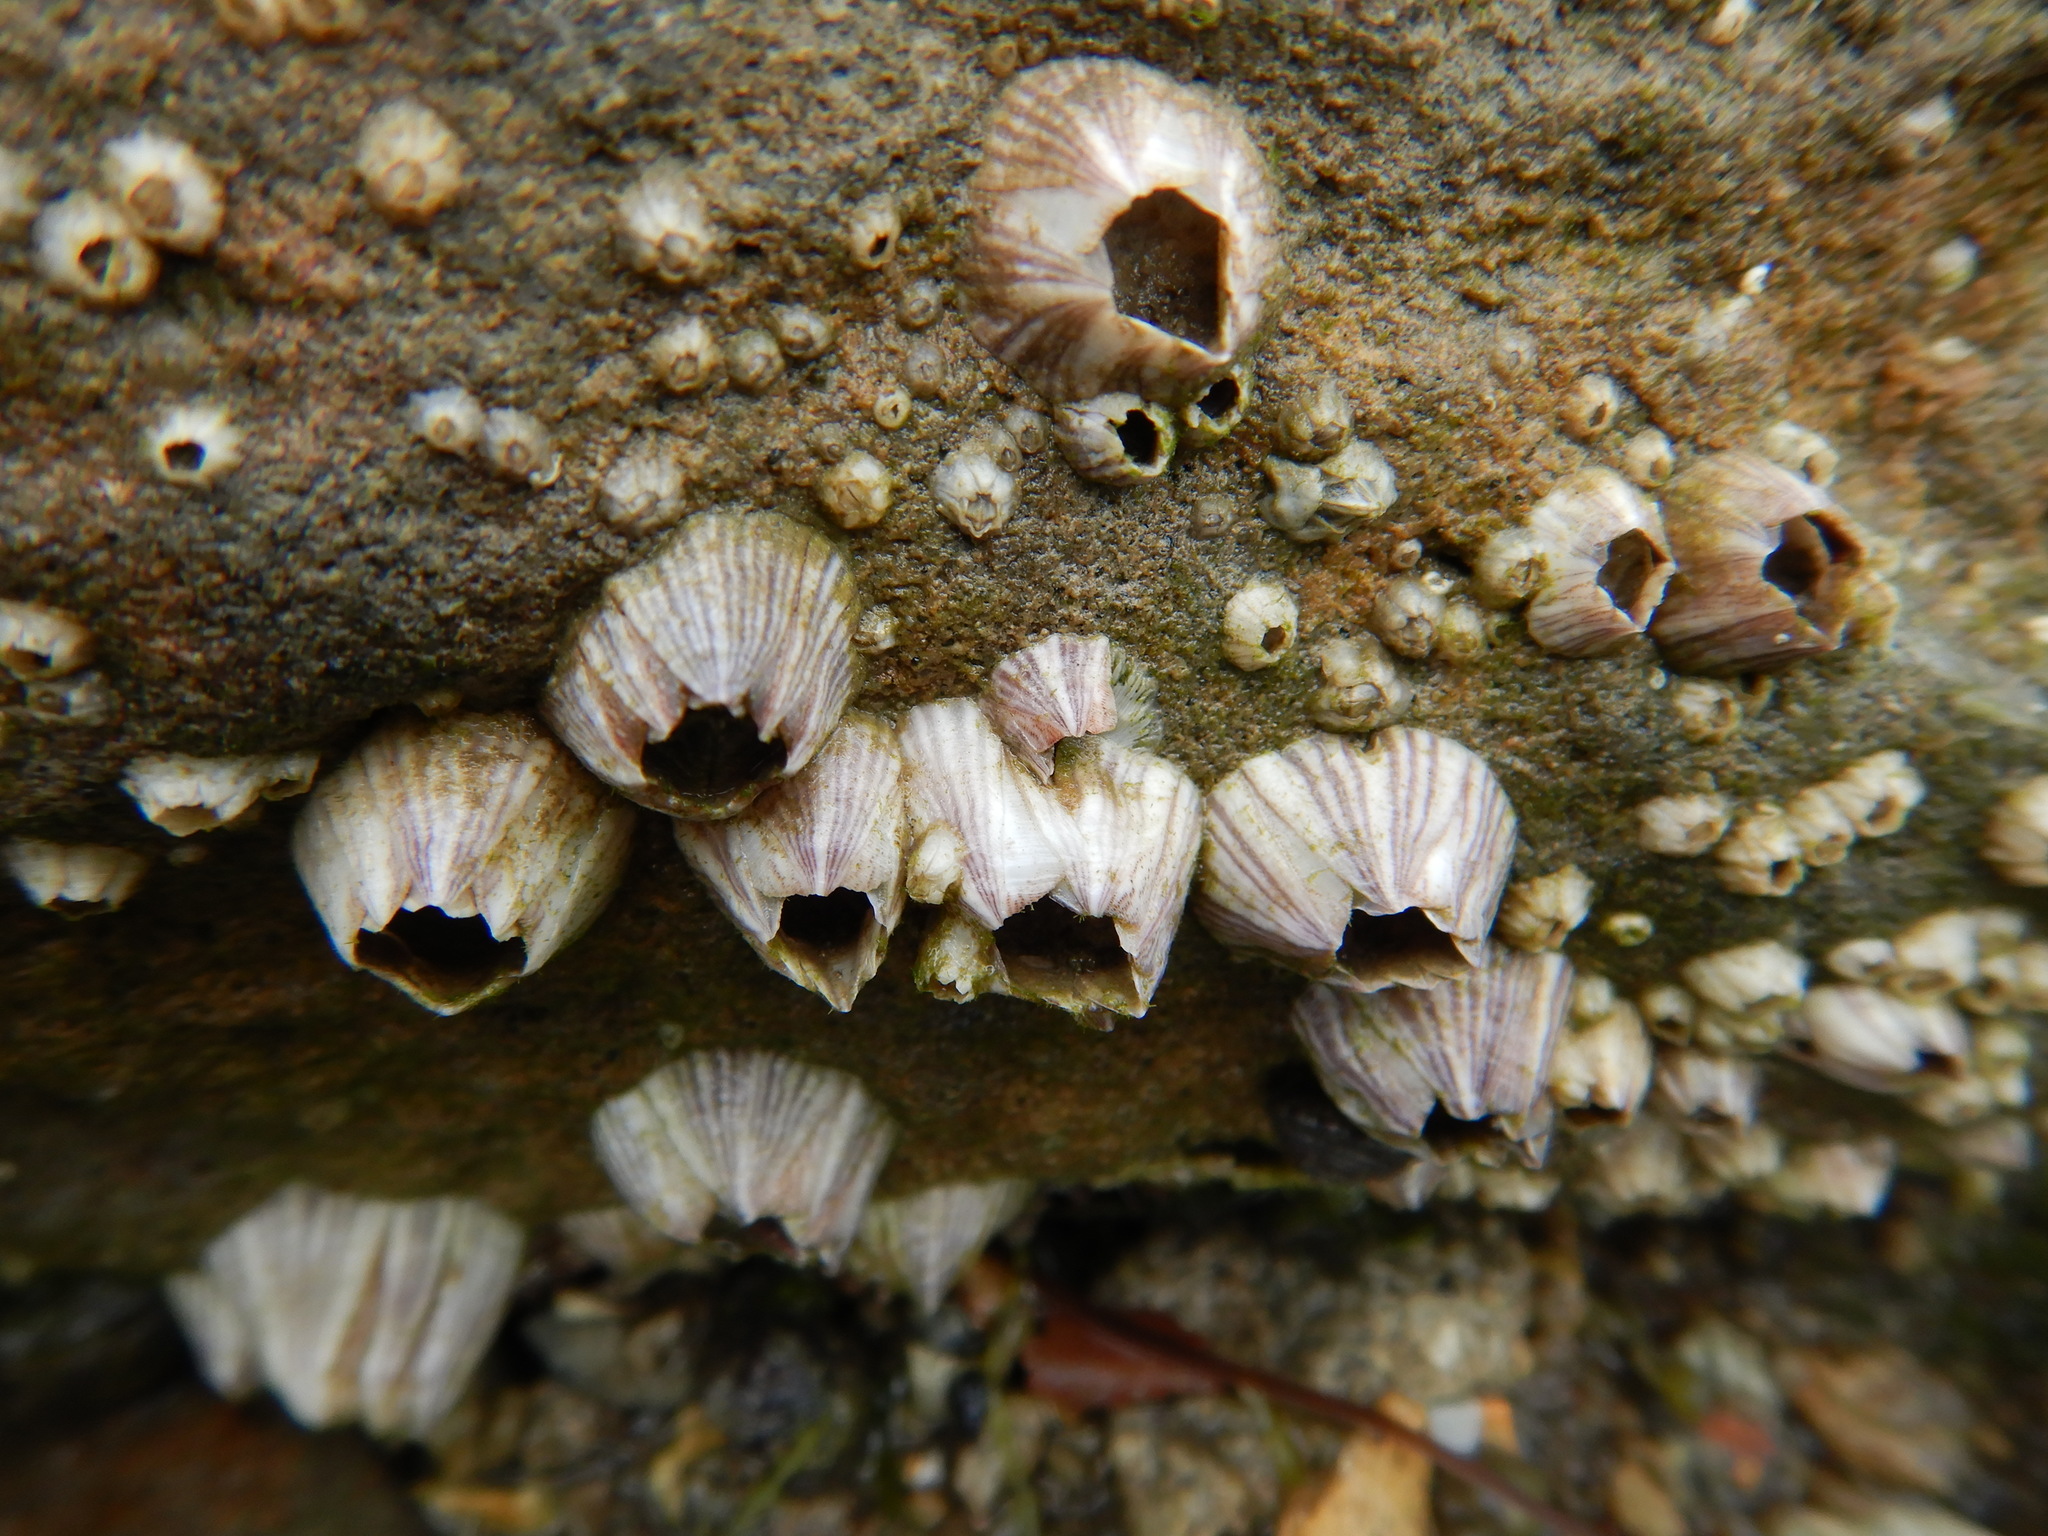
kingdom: Animalia
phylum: Arthropoda
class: Maxillopoda
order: Sessilia
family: Balanidae
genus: Amphibalanus
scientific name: Amphibalanus amphitrite
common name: Striped acorn barnacle
